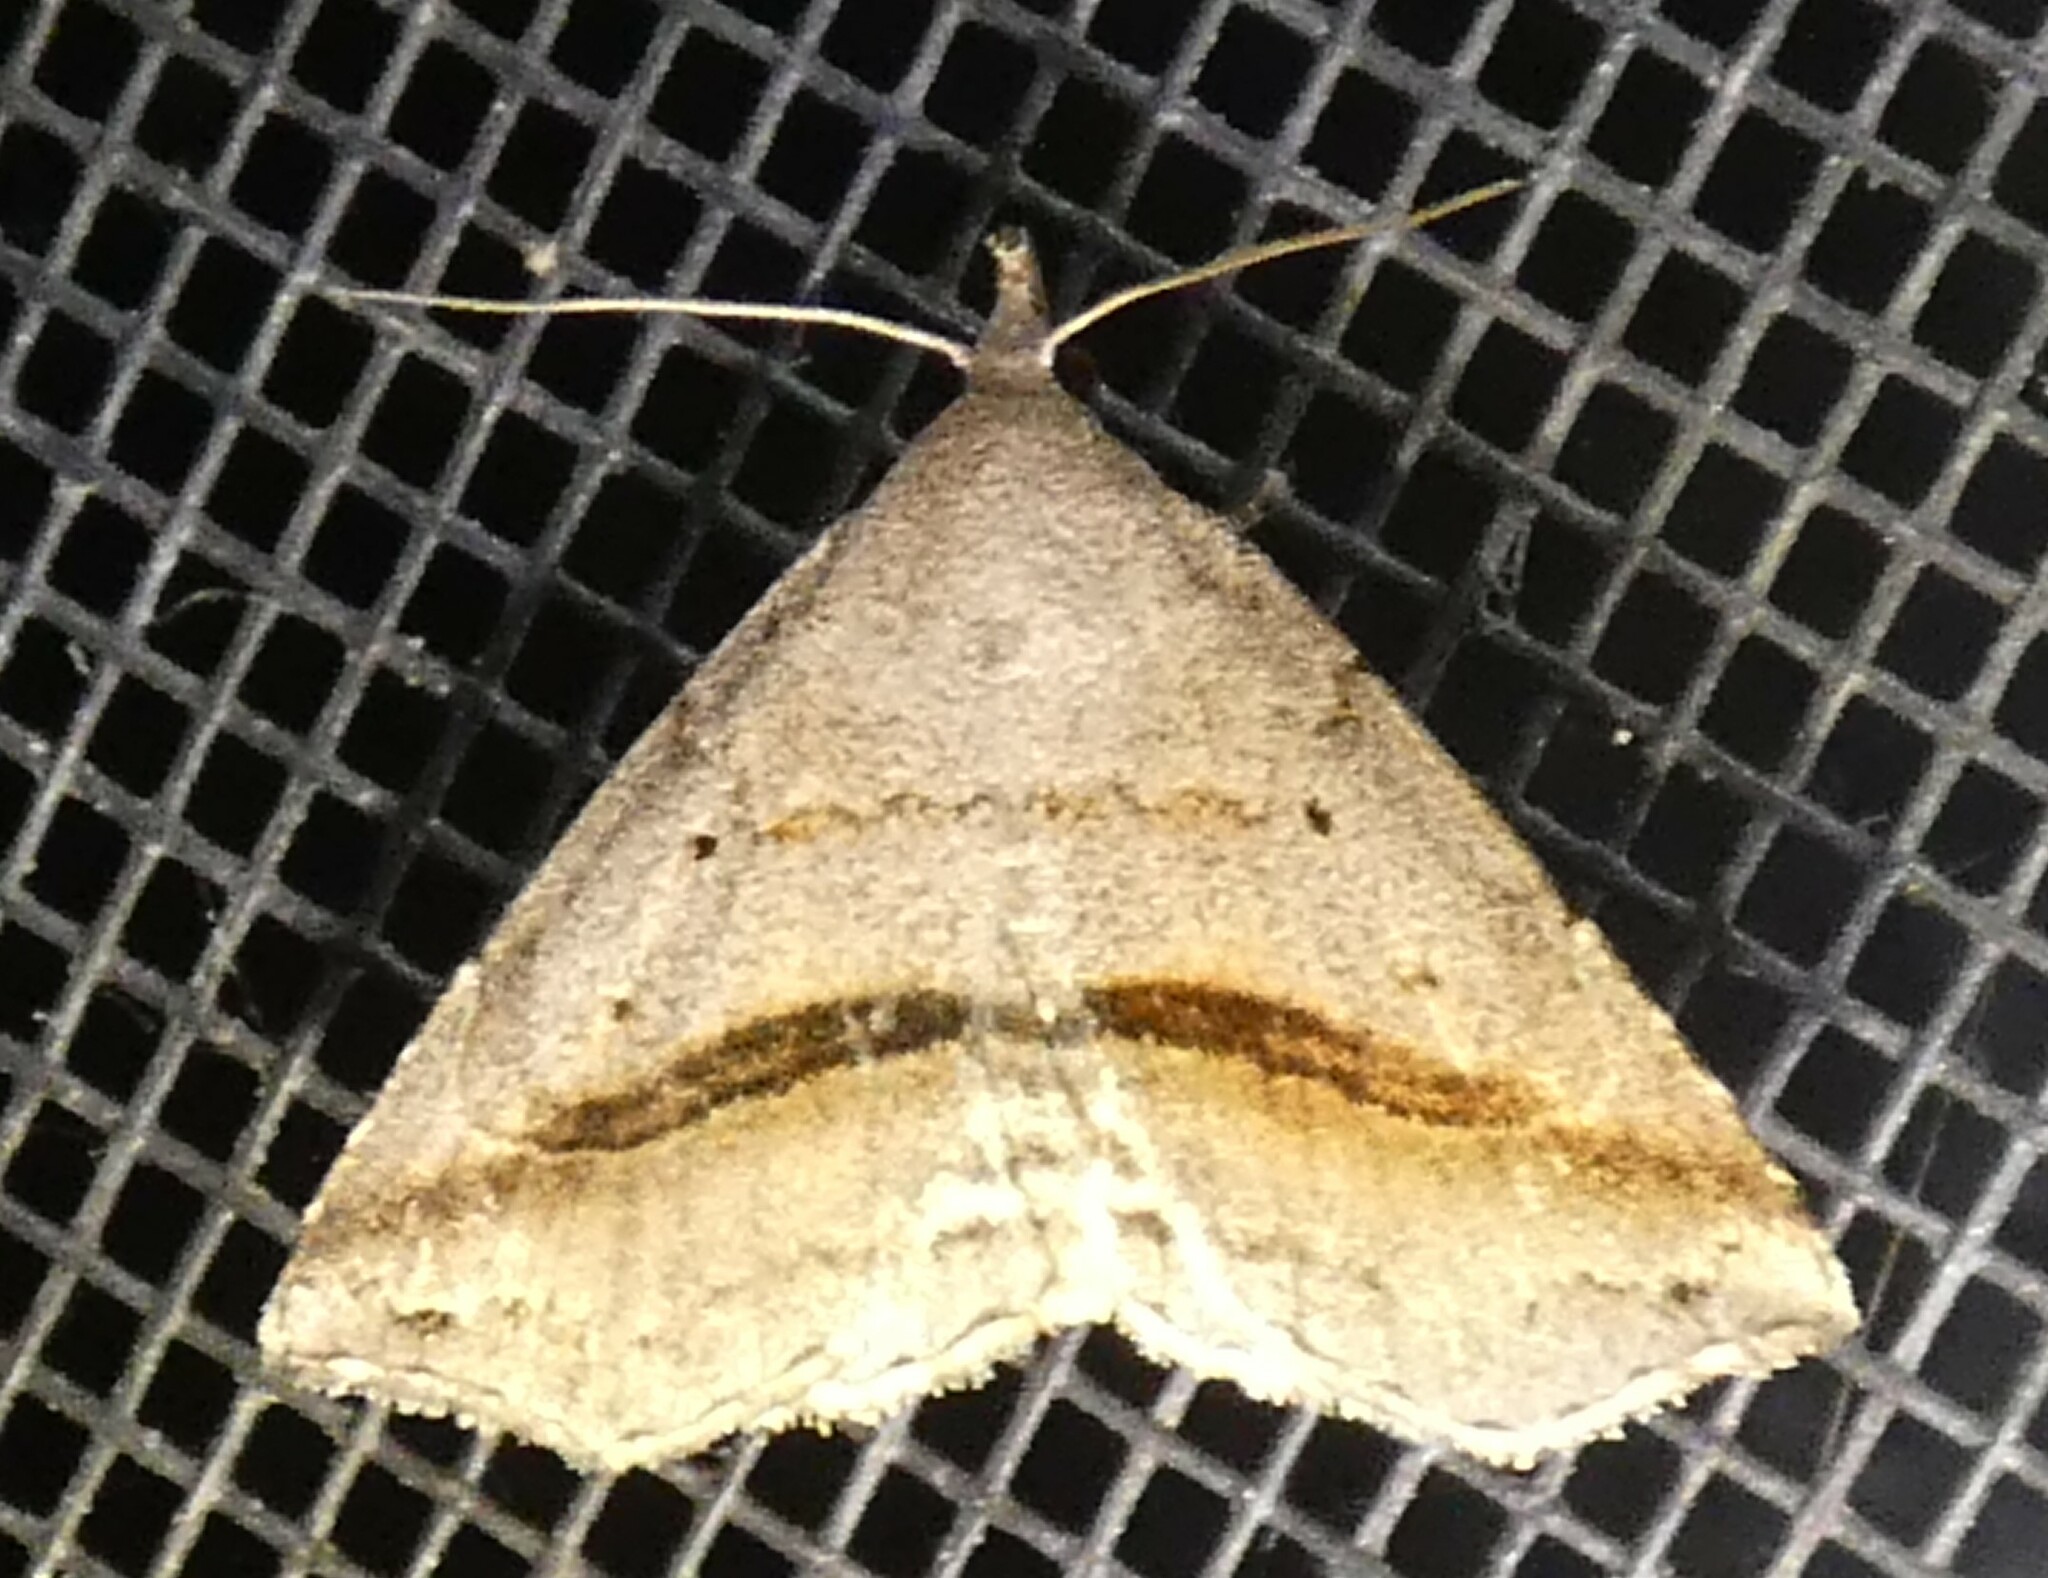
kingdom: Animalia
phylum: Arthropoda
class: Insecta
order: Lepidoptera
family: Erebidae
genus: Spargaloma
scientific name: Spargaloma perditalis
